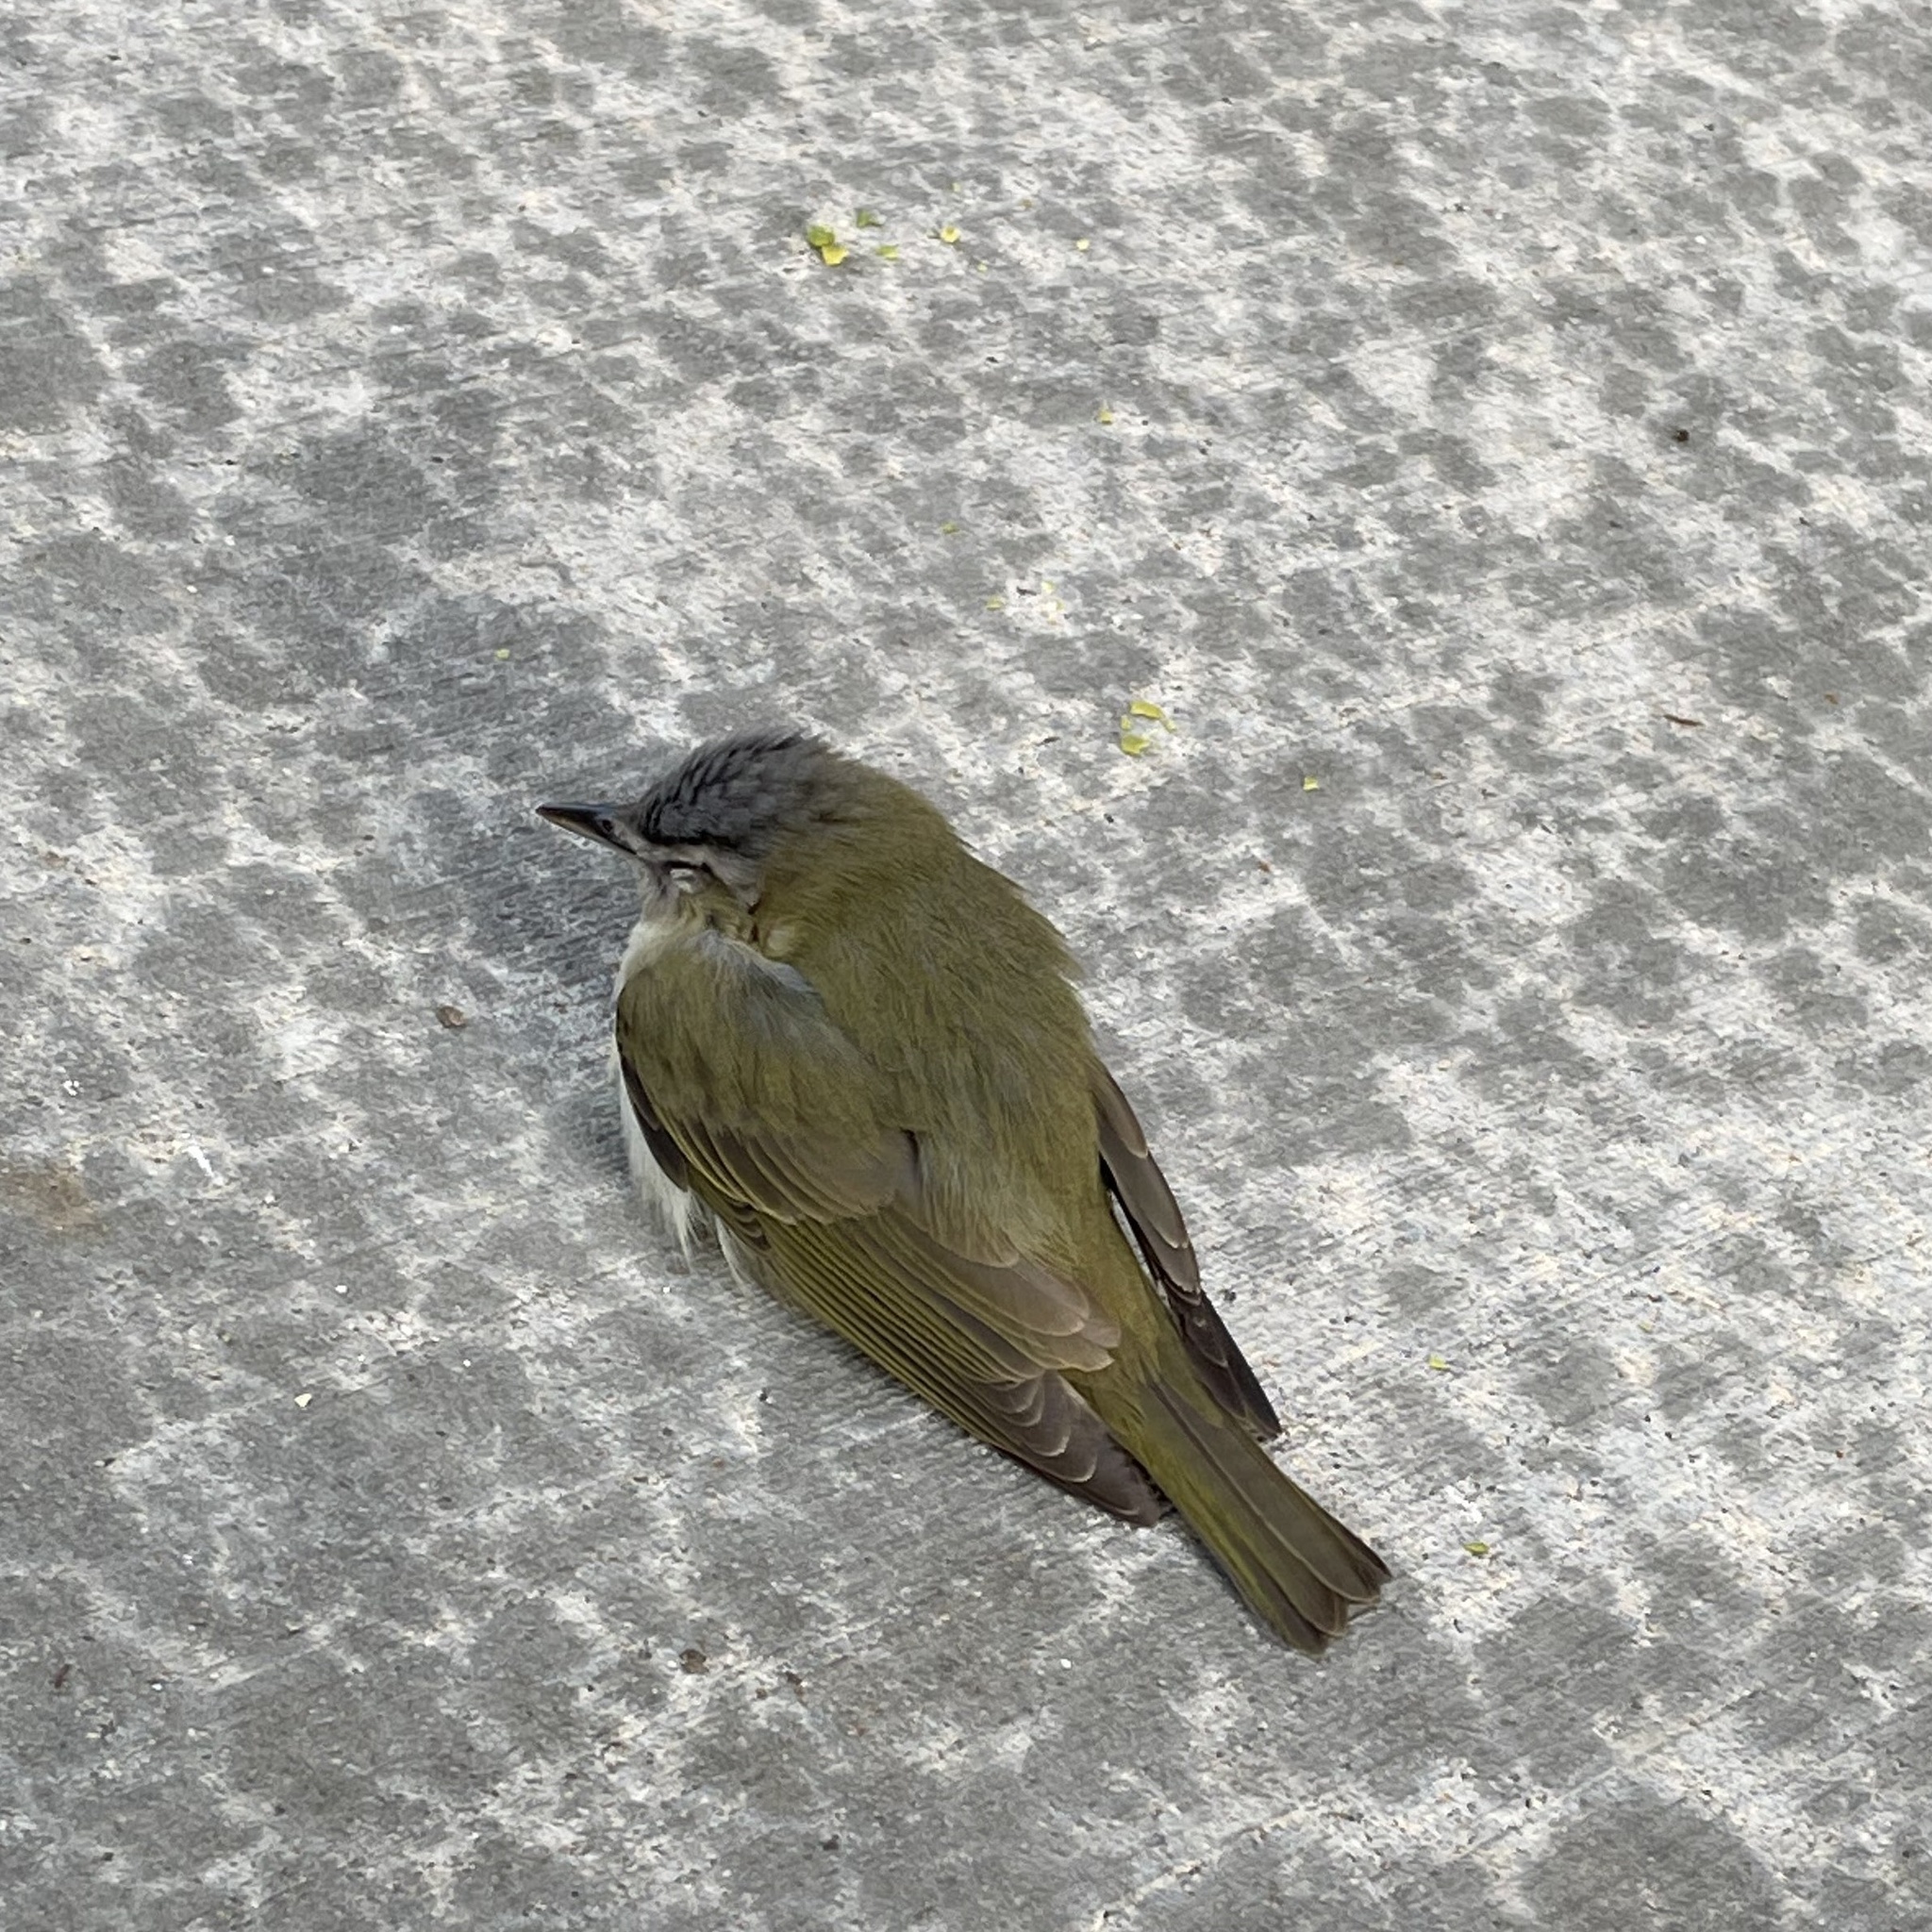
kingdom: Animalia
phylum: Chordata
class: Aves
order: Passeriformes
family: Vireonidae
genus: Vireo
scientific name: Vireo olivaceus
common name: Red-eyed vireo
